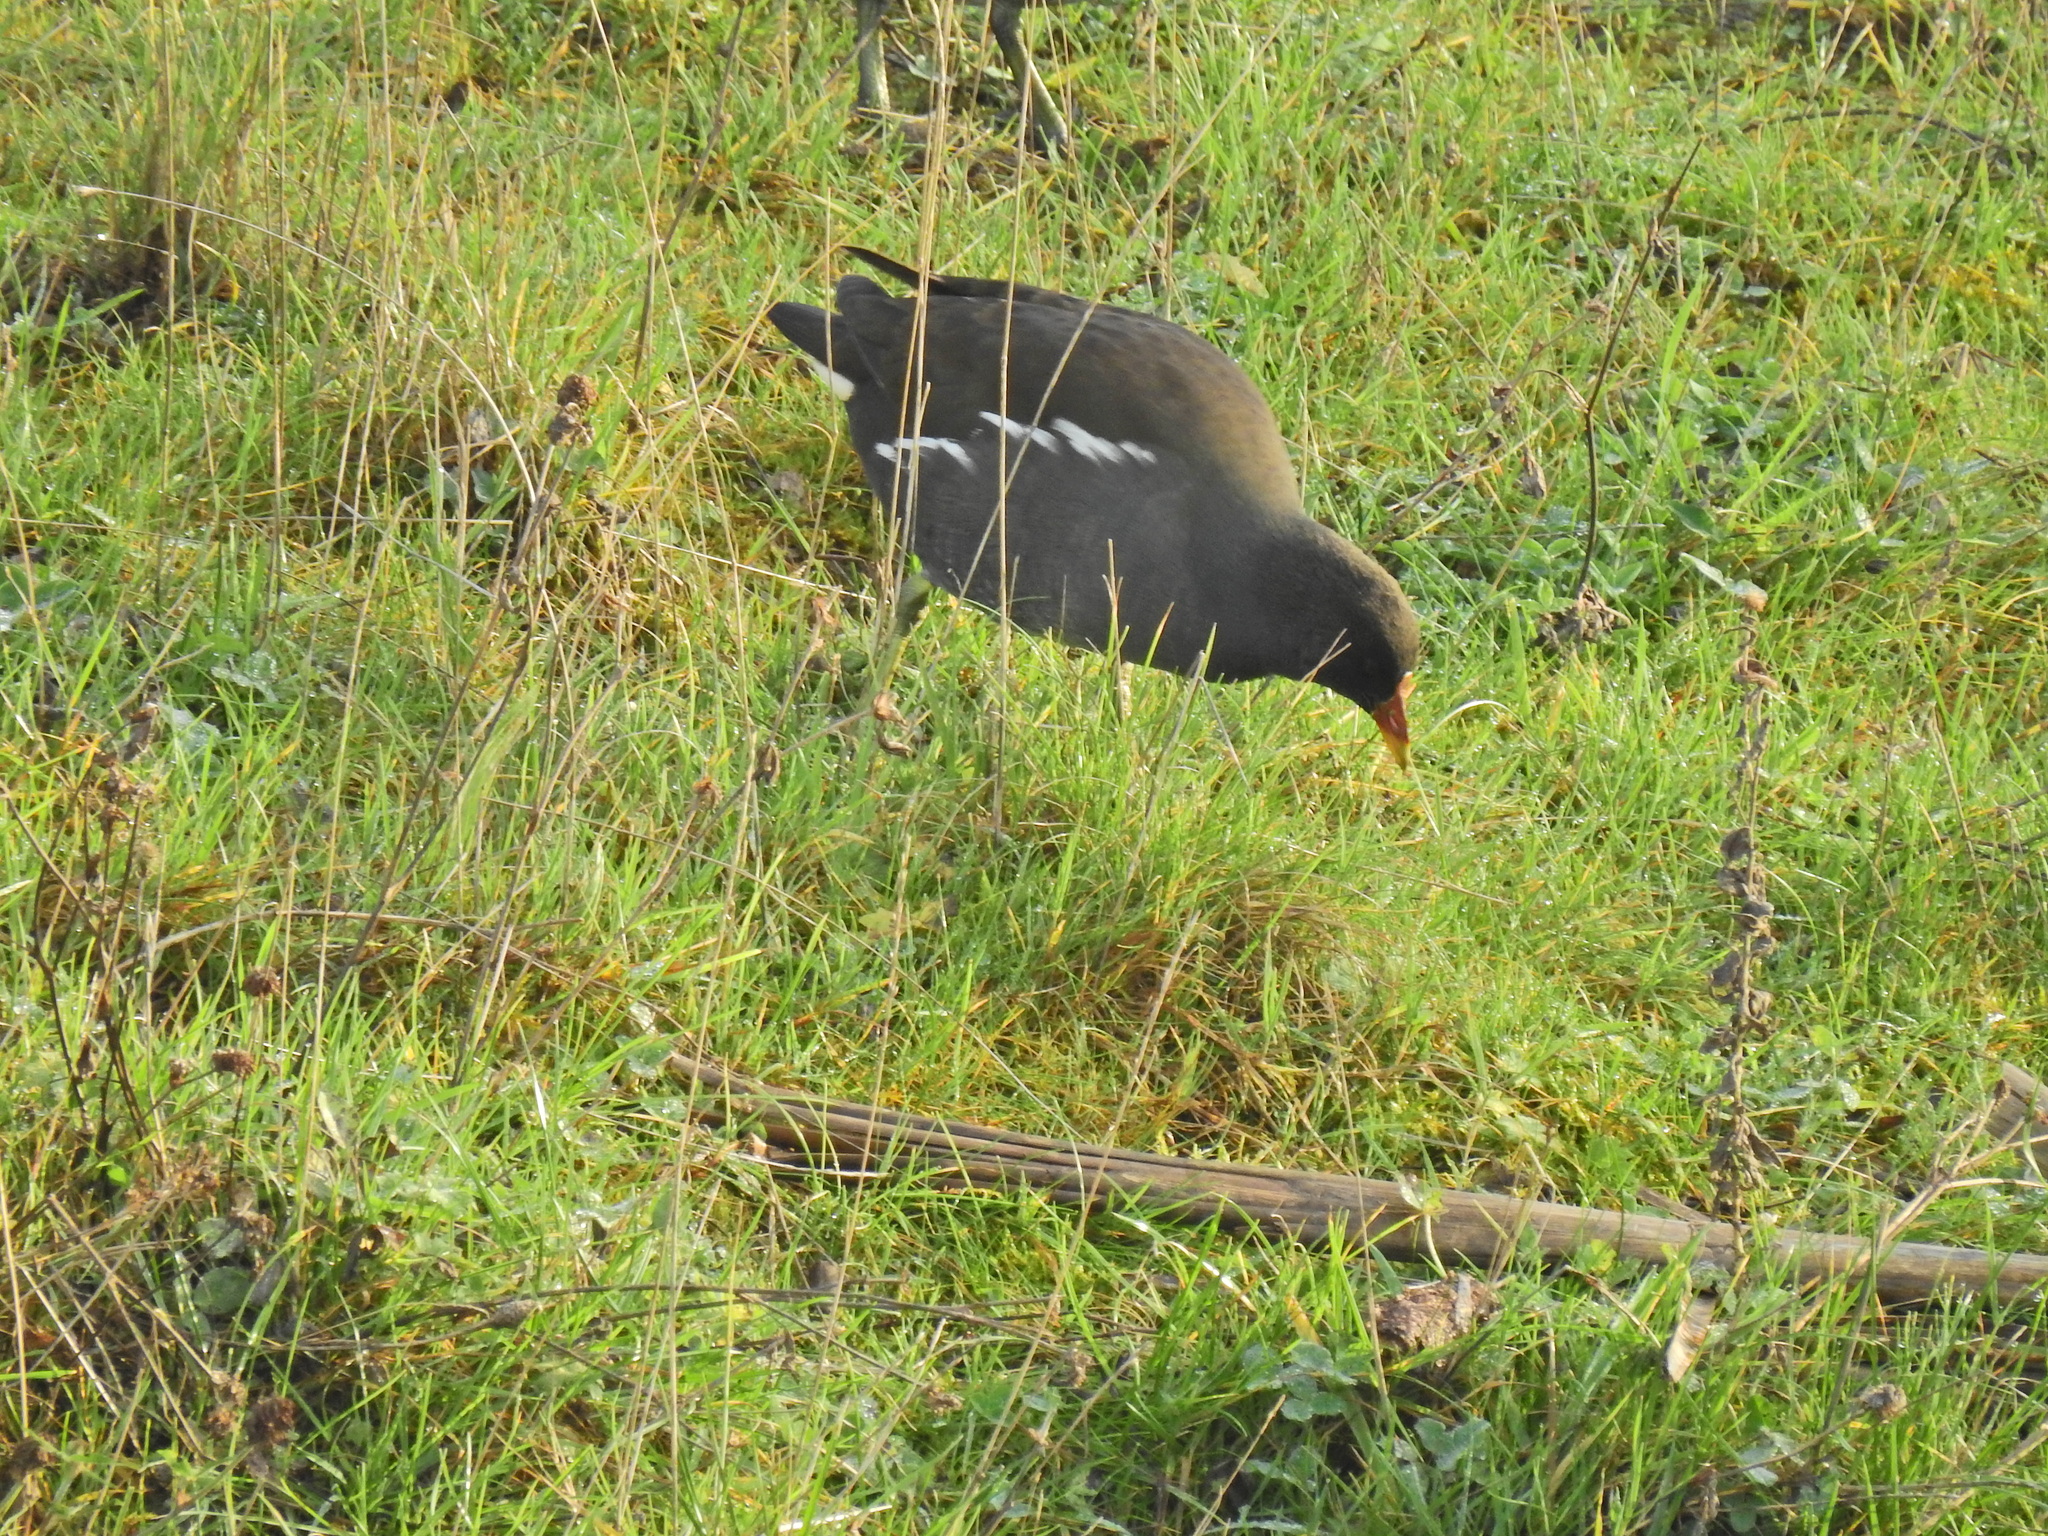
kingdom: Animalia
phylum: Chordata
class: Aves
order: Gruiformes
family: Rallidae
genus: Gallinula
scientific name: Gallinula chloropus
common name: Common moorhen
